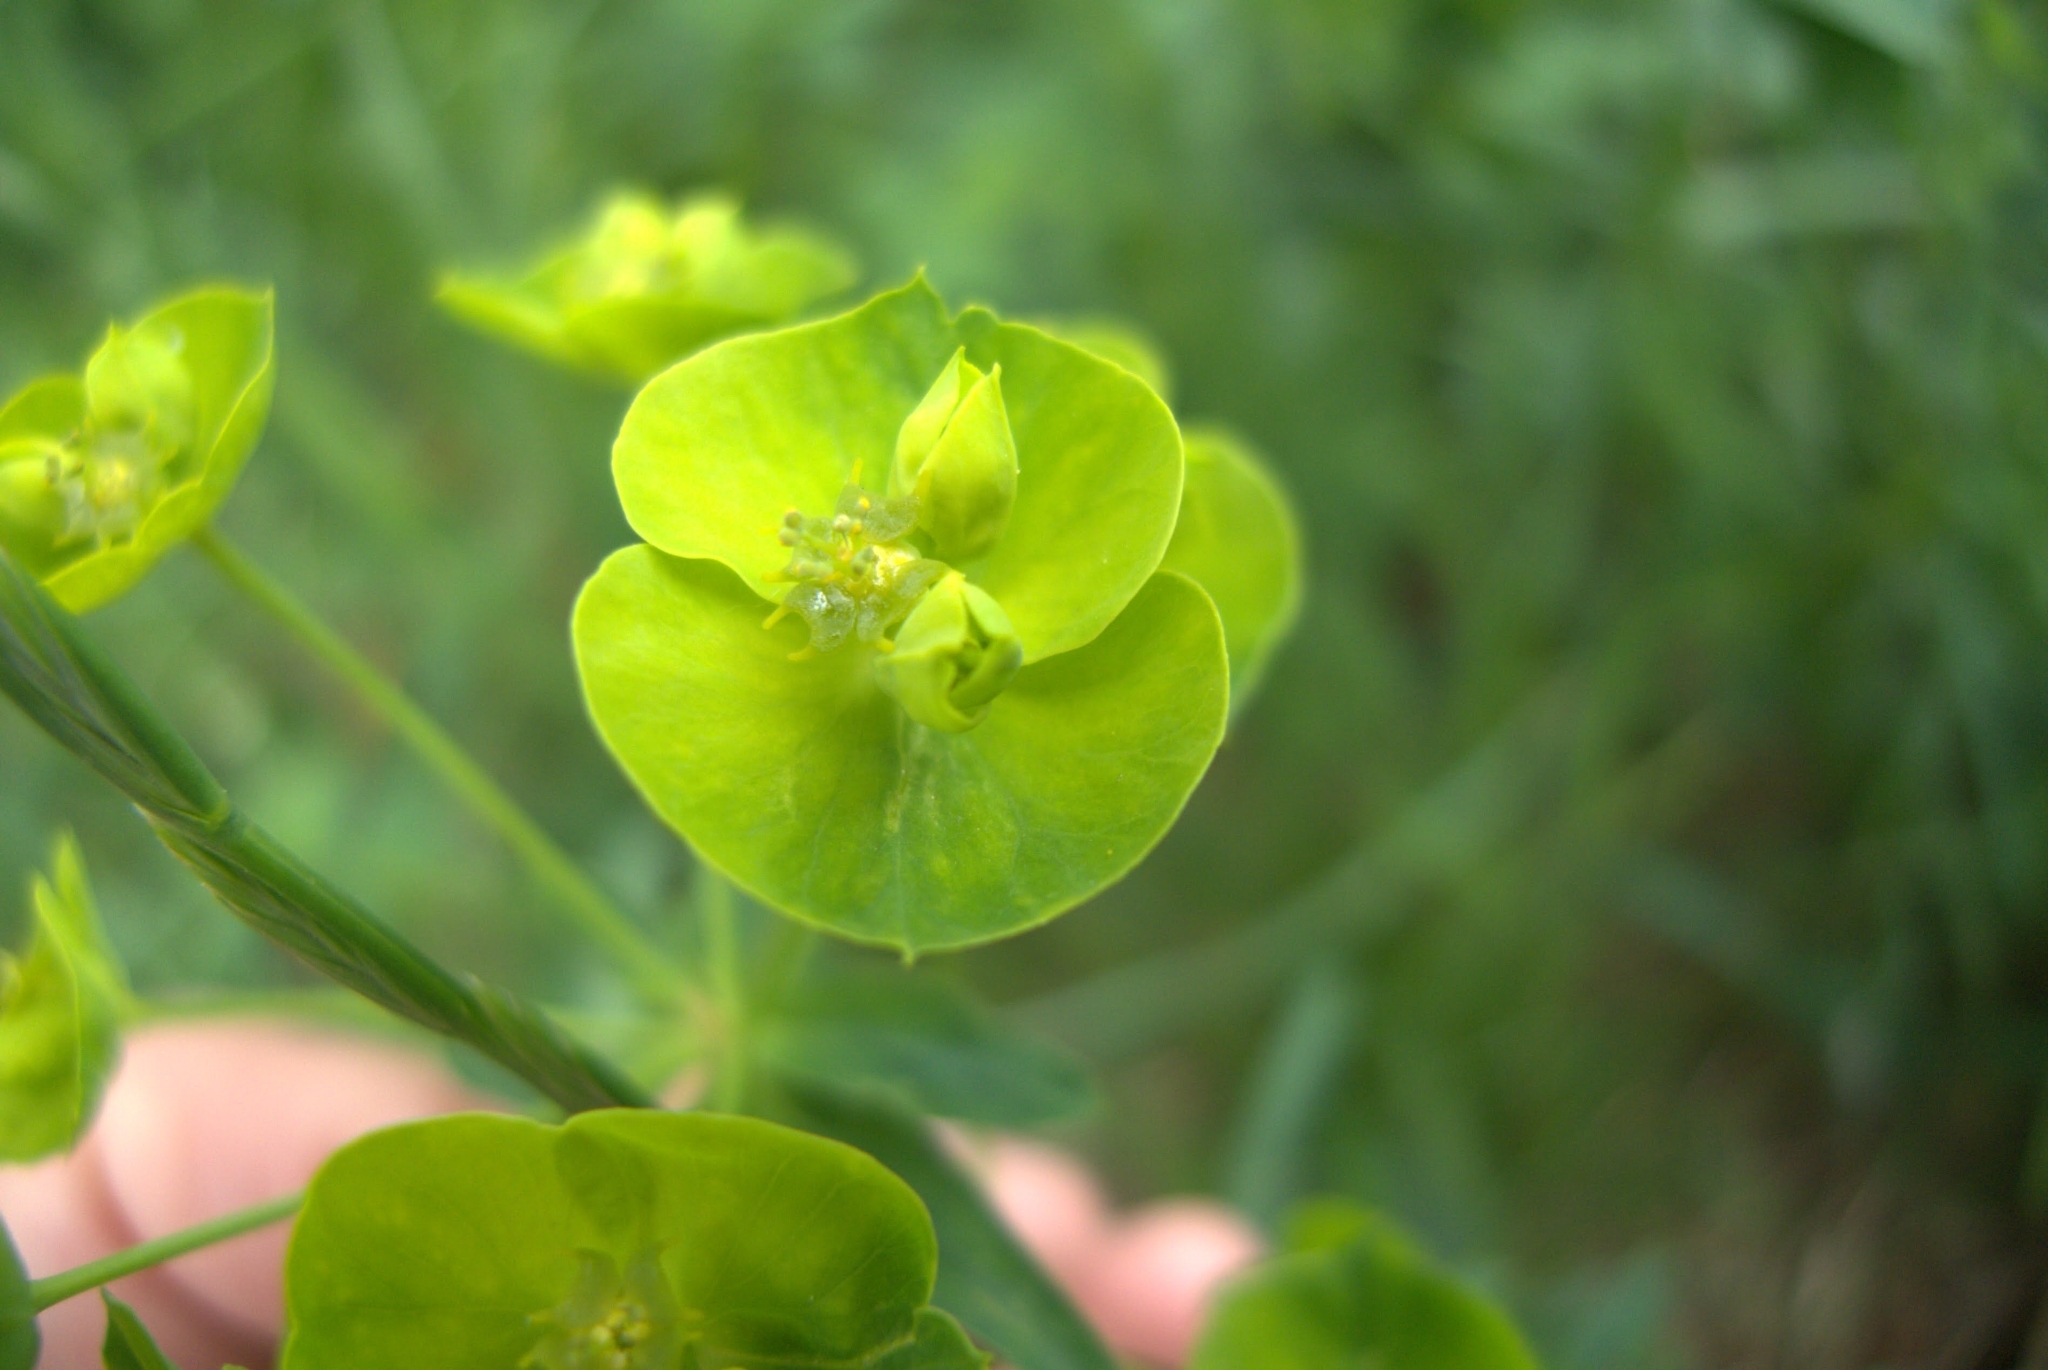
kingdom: Plantae
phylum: Tracheophyta
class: Magnoliopsida
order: Malpighiales
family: Euphorbiaceae
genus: Euphorbia
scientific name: Euphorbia esula
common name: Leafy spurge
